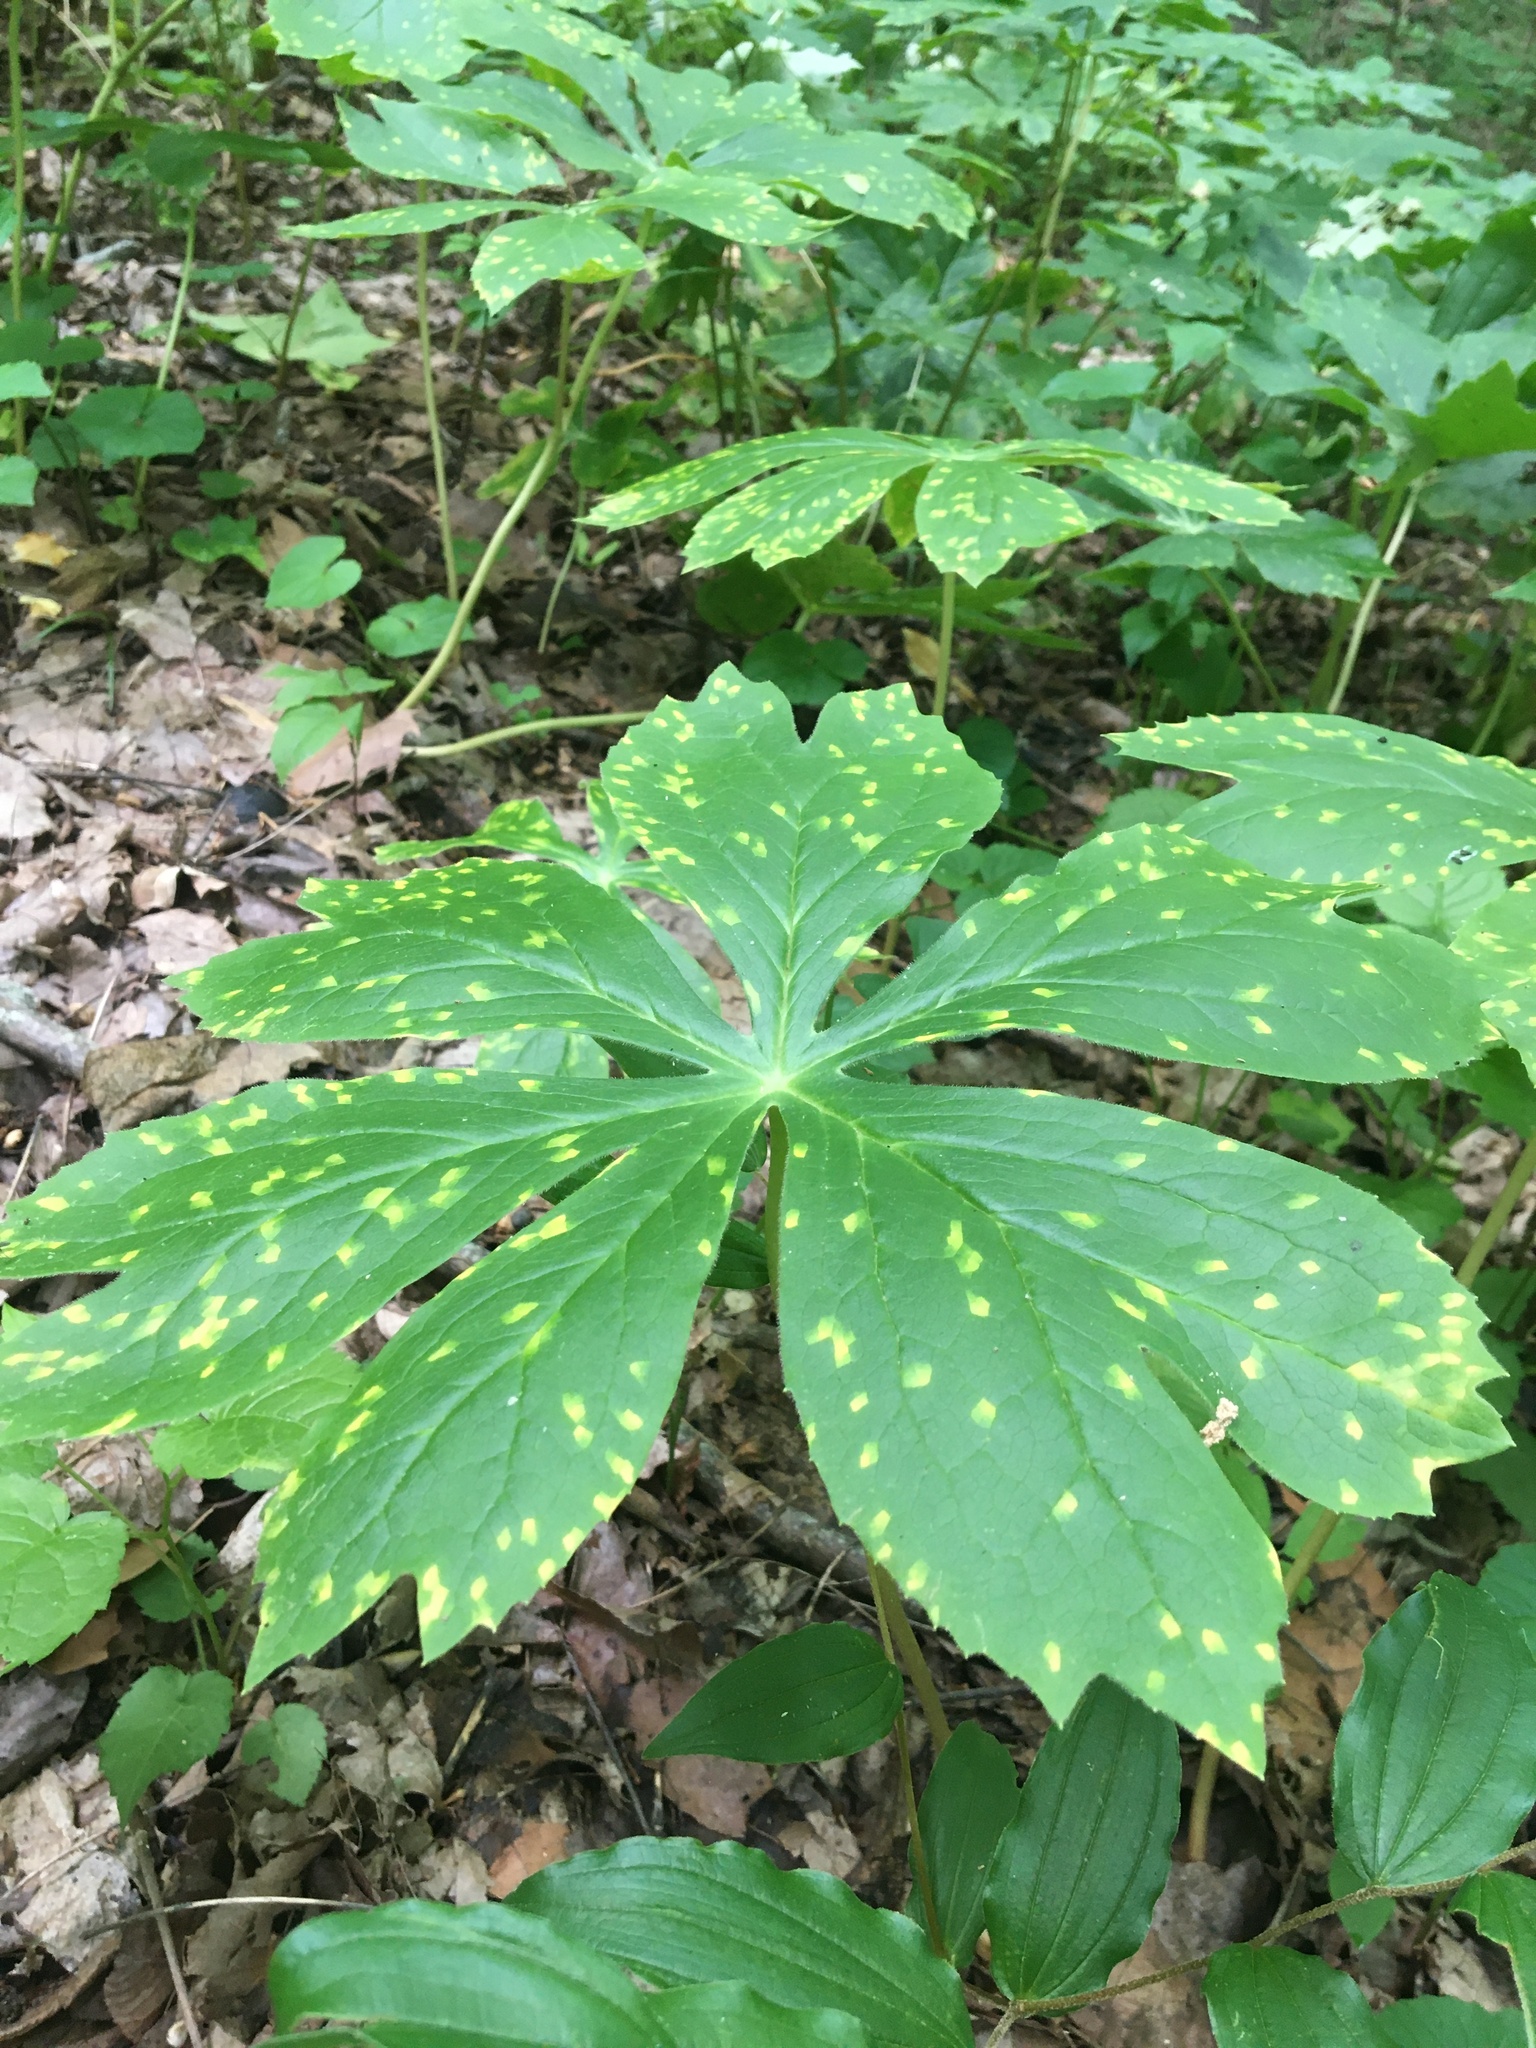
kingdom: Plantae
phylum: Tracheophyta
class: Magnoliopsida
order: Ranunculales
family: Berberidaceae
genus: Podophyllum
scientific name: Podophyllum peltatum
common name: Wild mandrake
